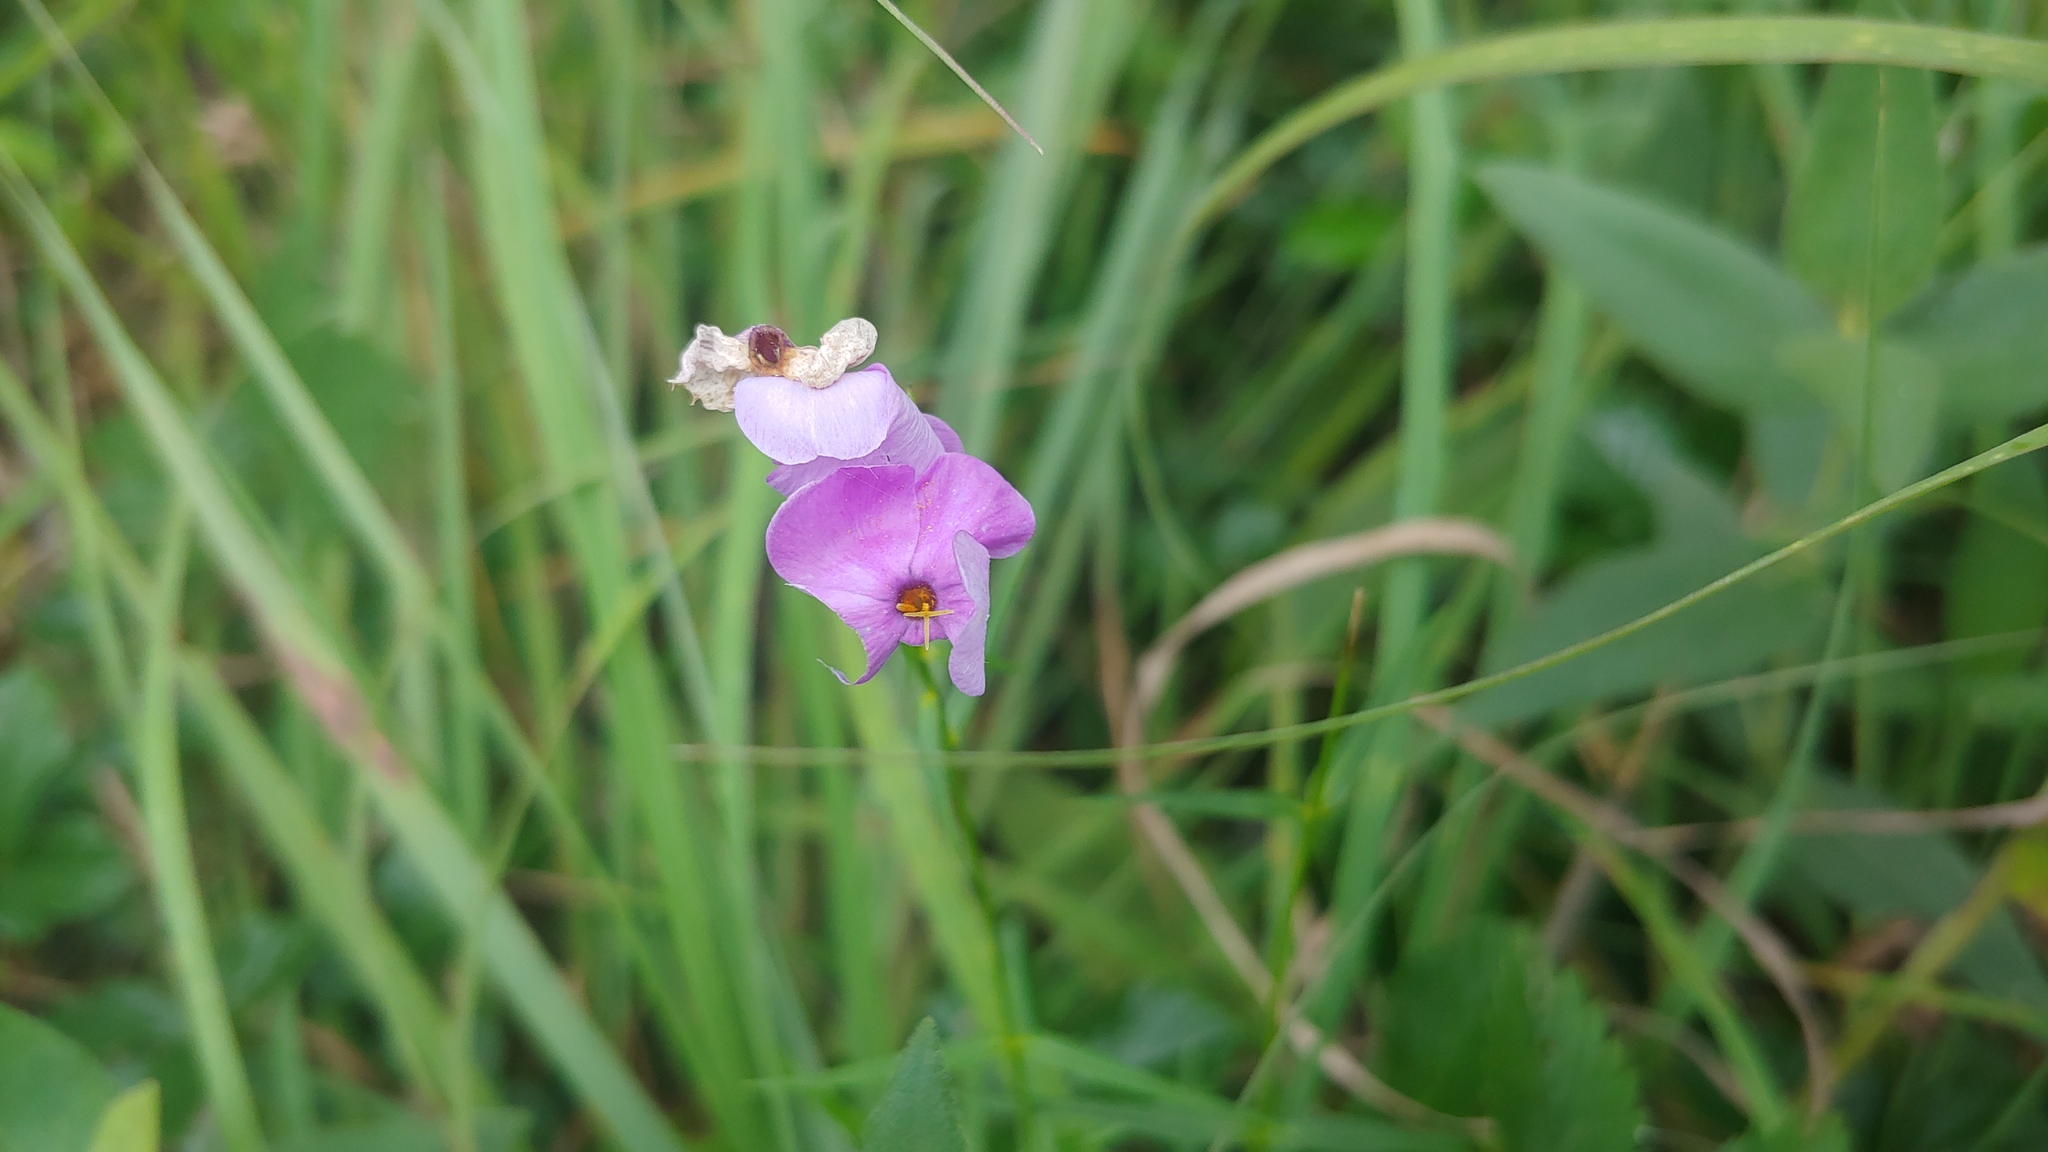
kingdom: Plantae
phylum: Tracheophyta
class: Magnoliopsida
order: Ericales
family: Polemoniaceae
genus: Phlox
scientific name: Phlox glaberrima
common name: Smooth phlox
